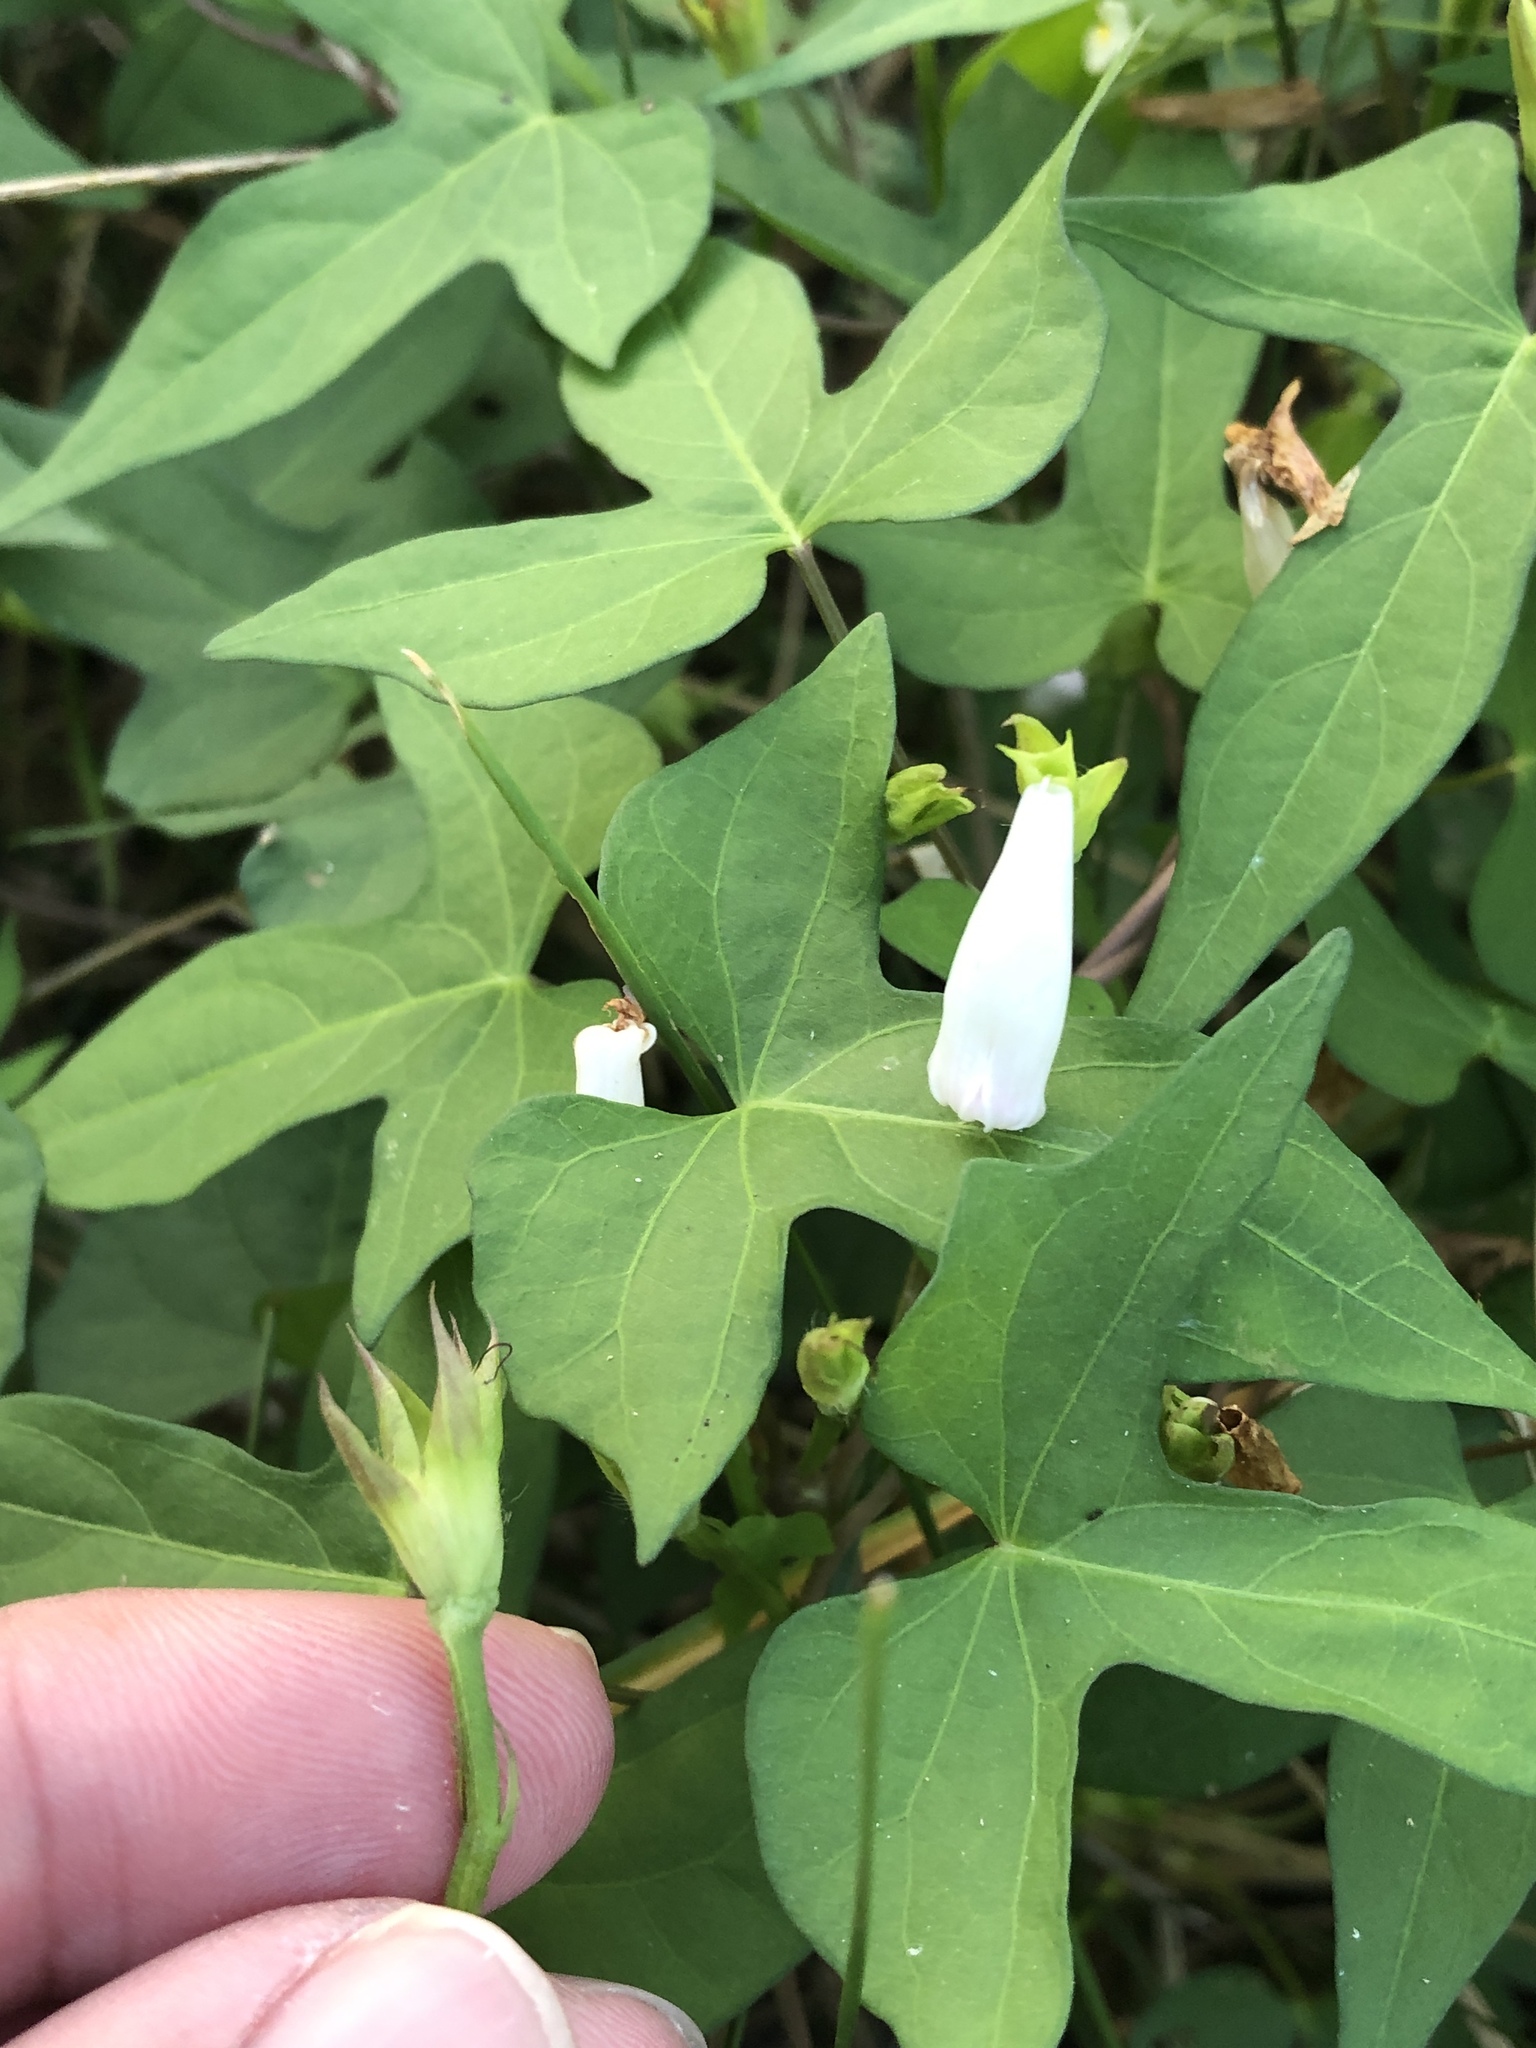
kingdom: Plantae
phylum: Tracheophyta
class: Magnoliopsida
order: Solanales
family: Convolvulaceae
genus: Ipomoea
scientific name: Ipomoea lacunosa
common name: White morning-glory
